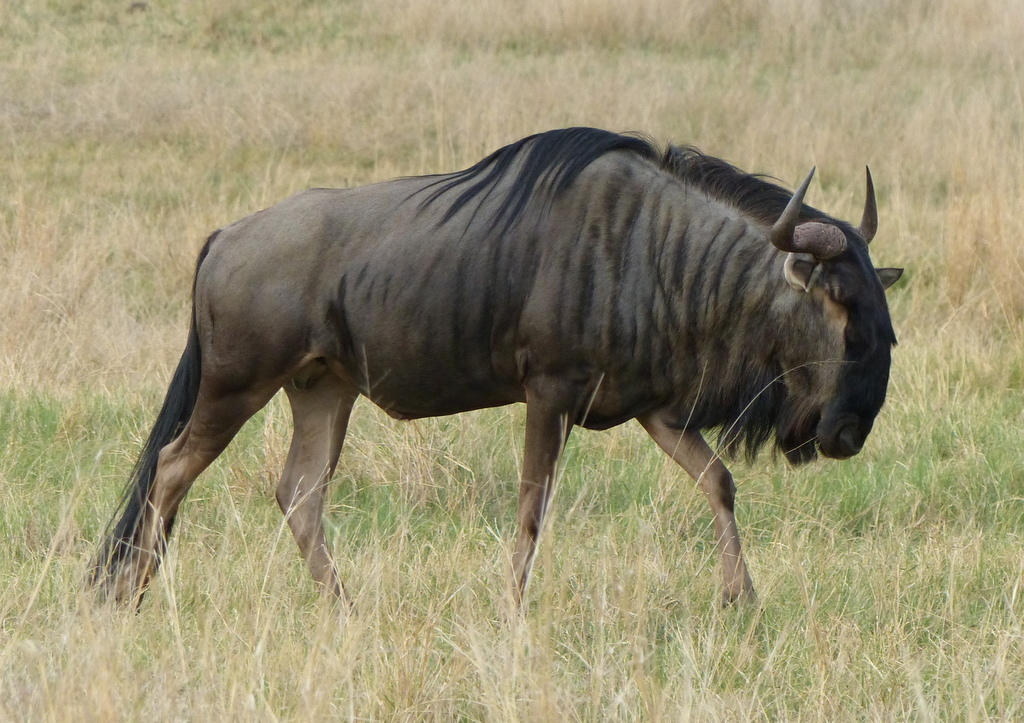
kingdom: Animalia
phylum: Chordata
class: Mammalia
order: Artiodactyla
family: Bovidae
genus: Connochaetes
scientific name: Connochaetes taurinus
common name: Blue wildebeest
